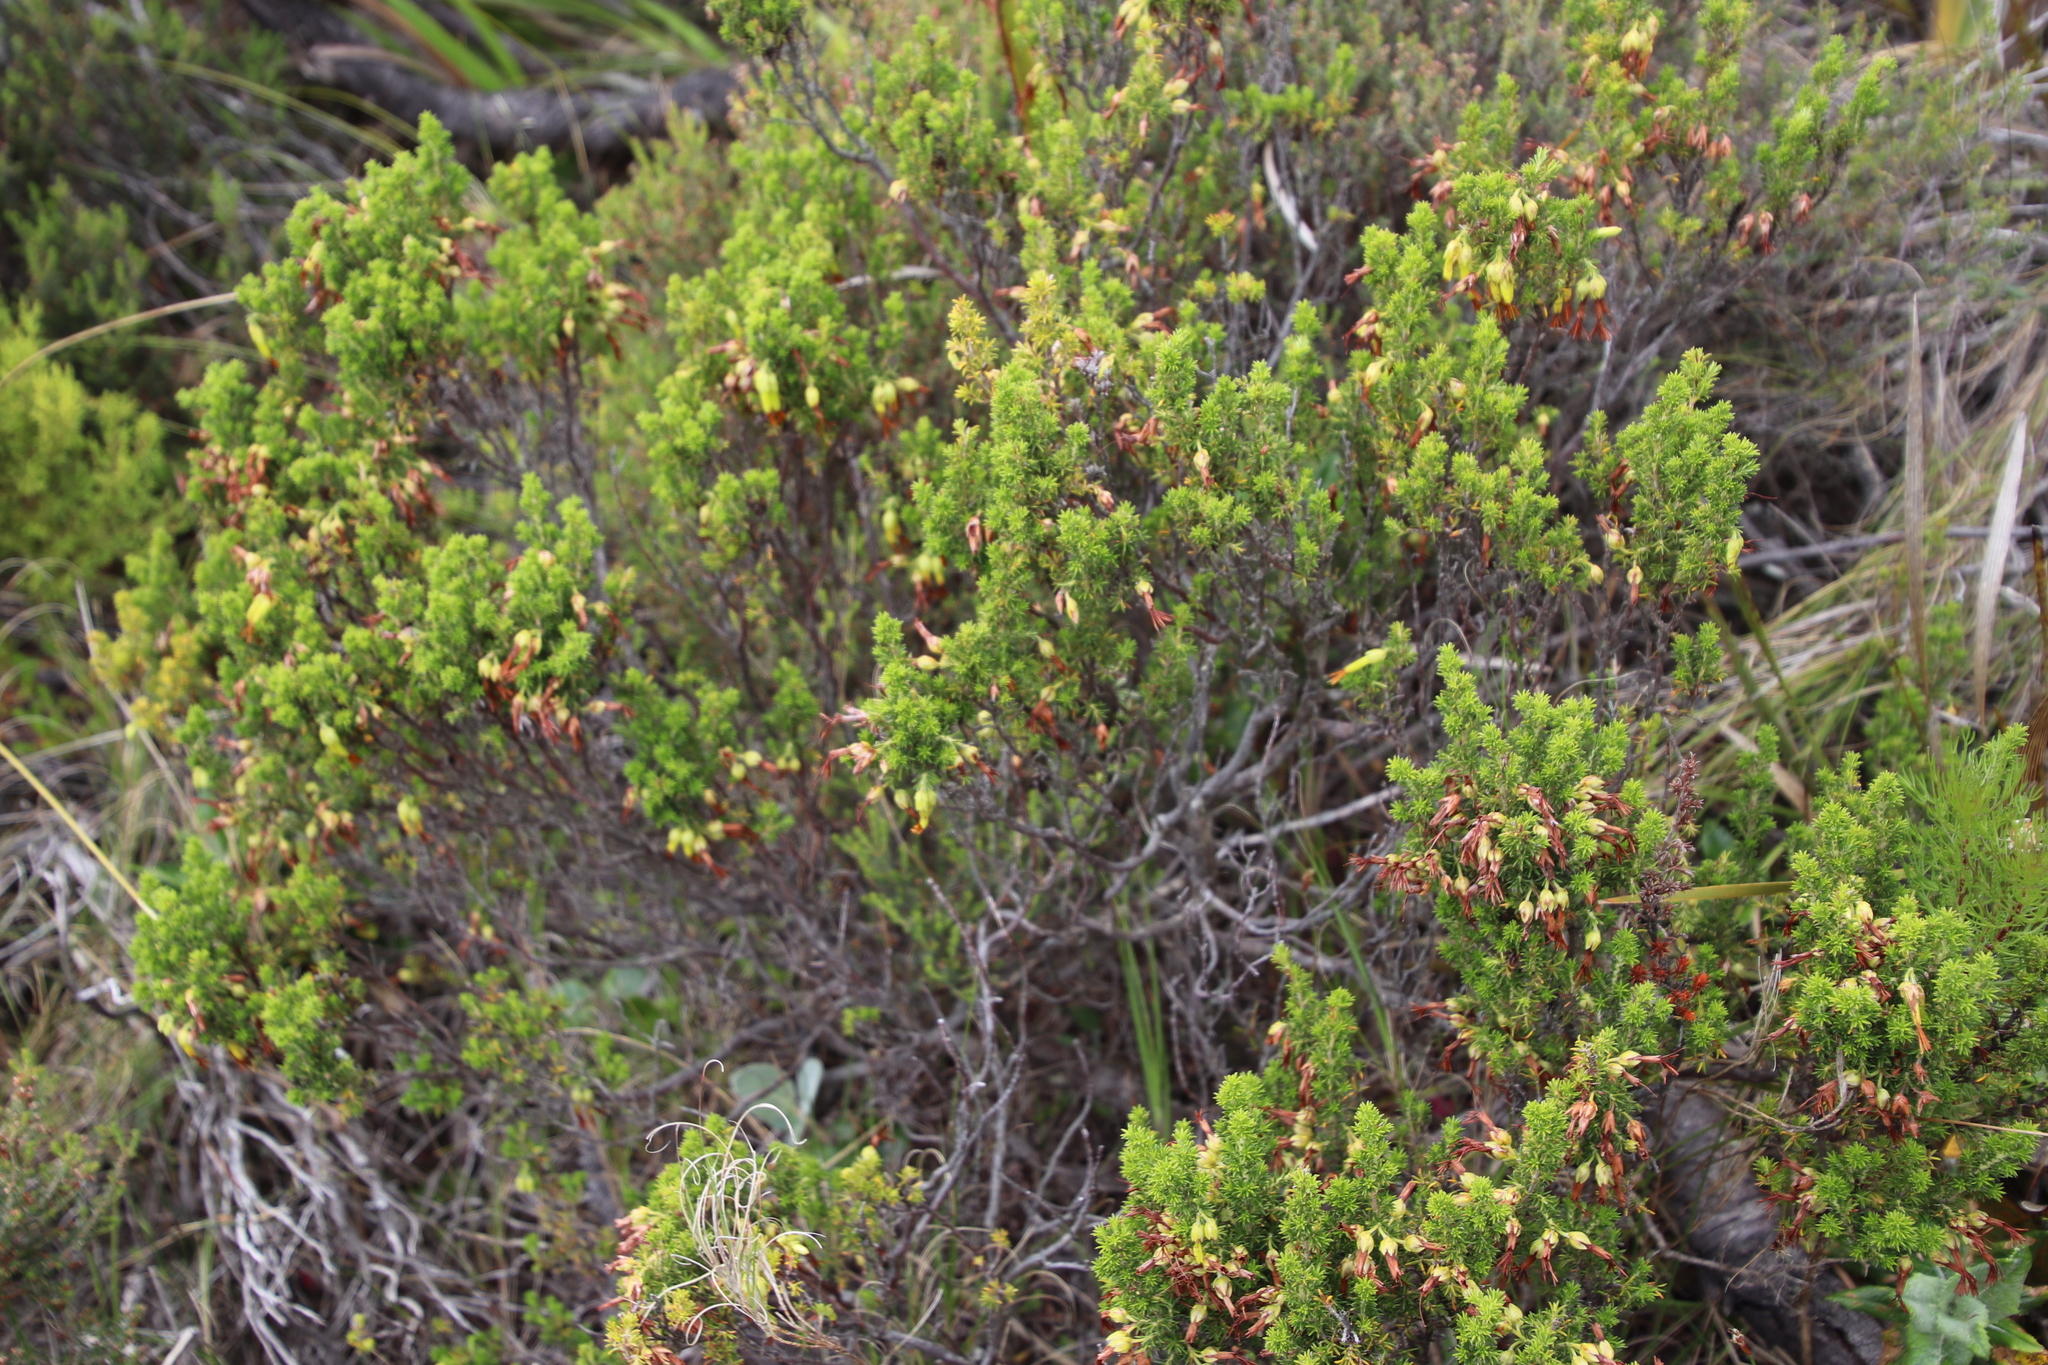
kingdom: Plantae
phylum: Tracheophyta
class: Magnoliopsida
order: Ericales
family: Ericaceae
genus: Erica
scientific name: Erica coccinea
